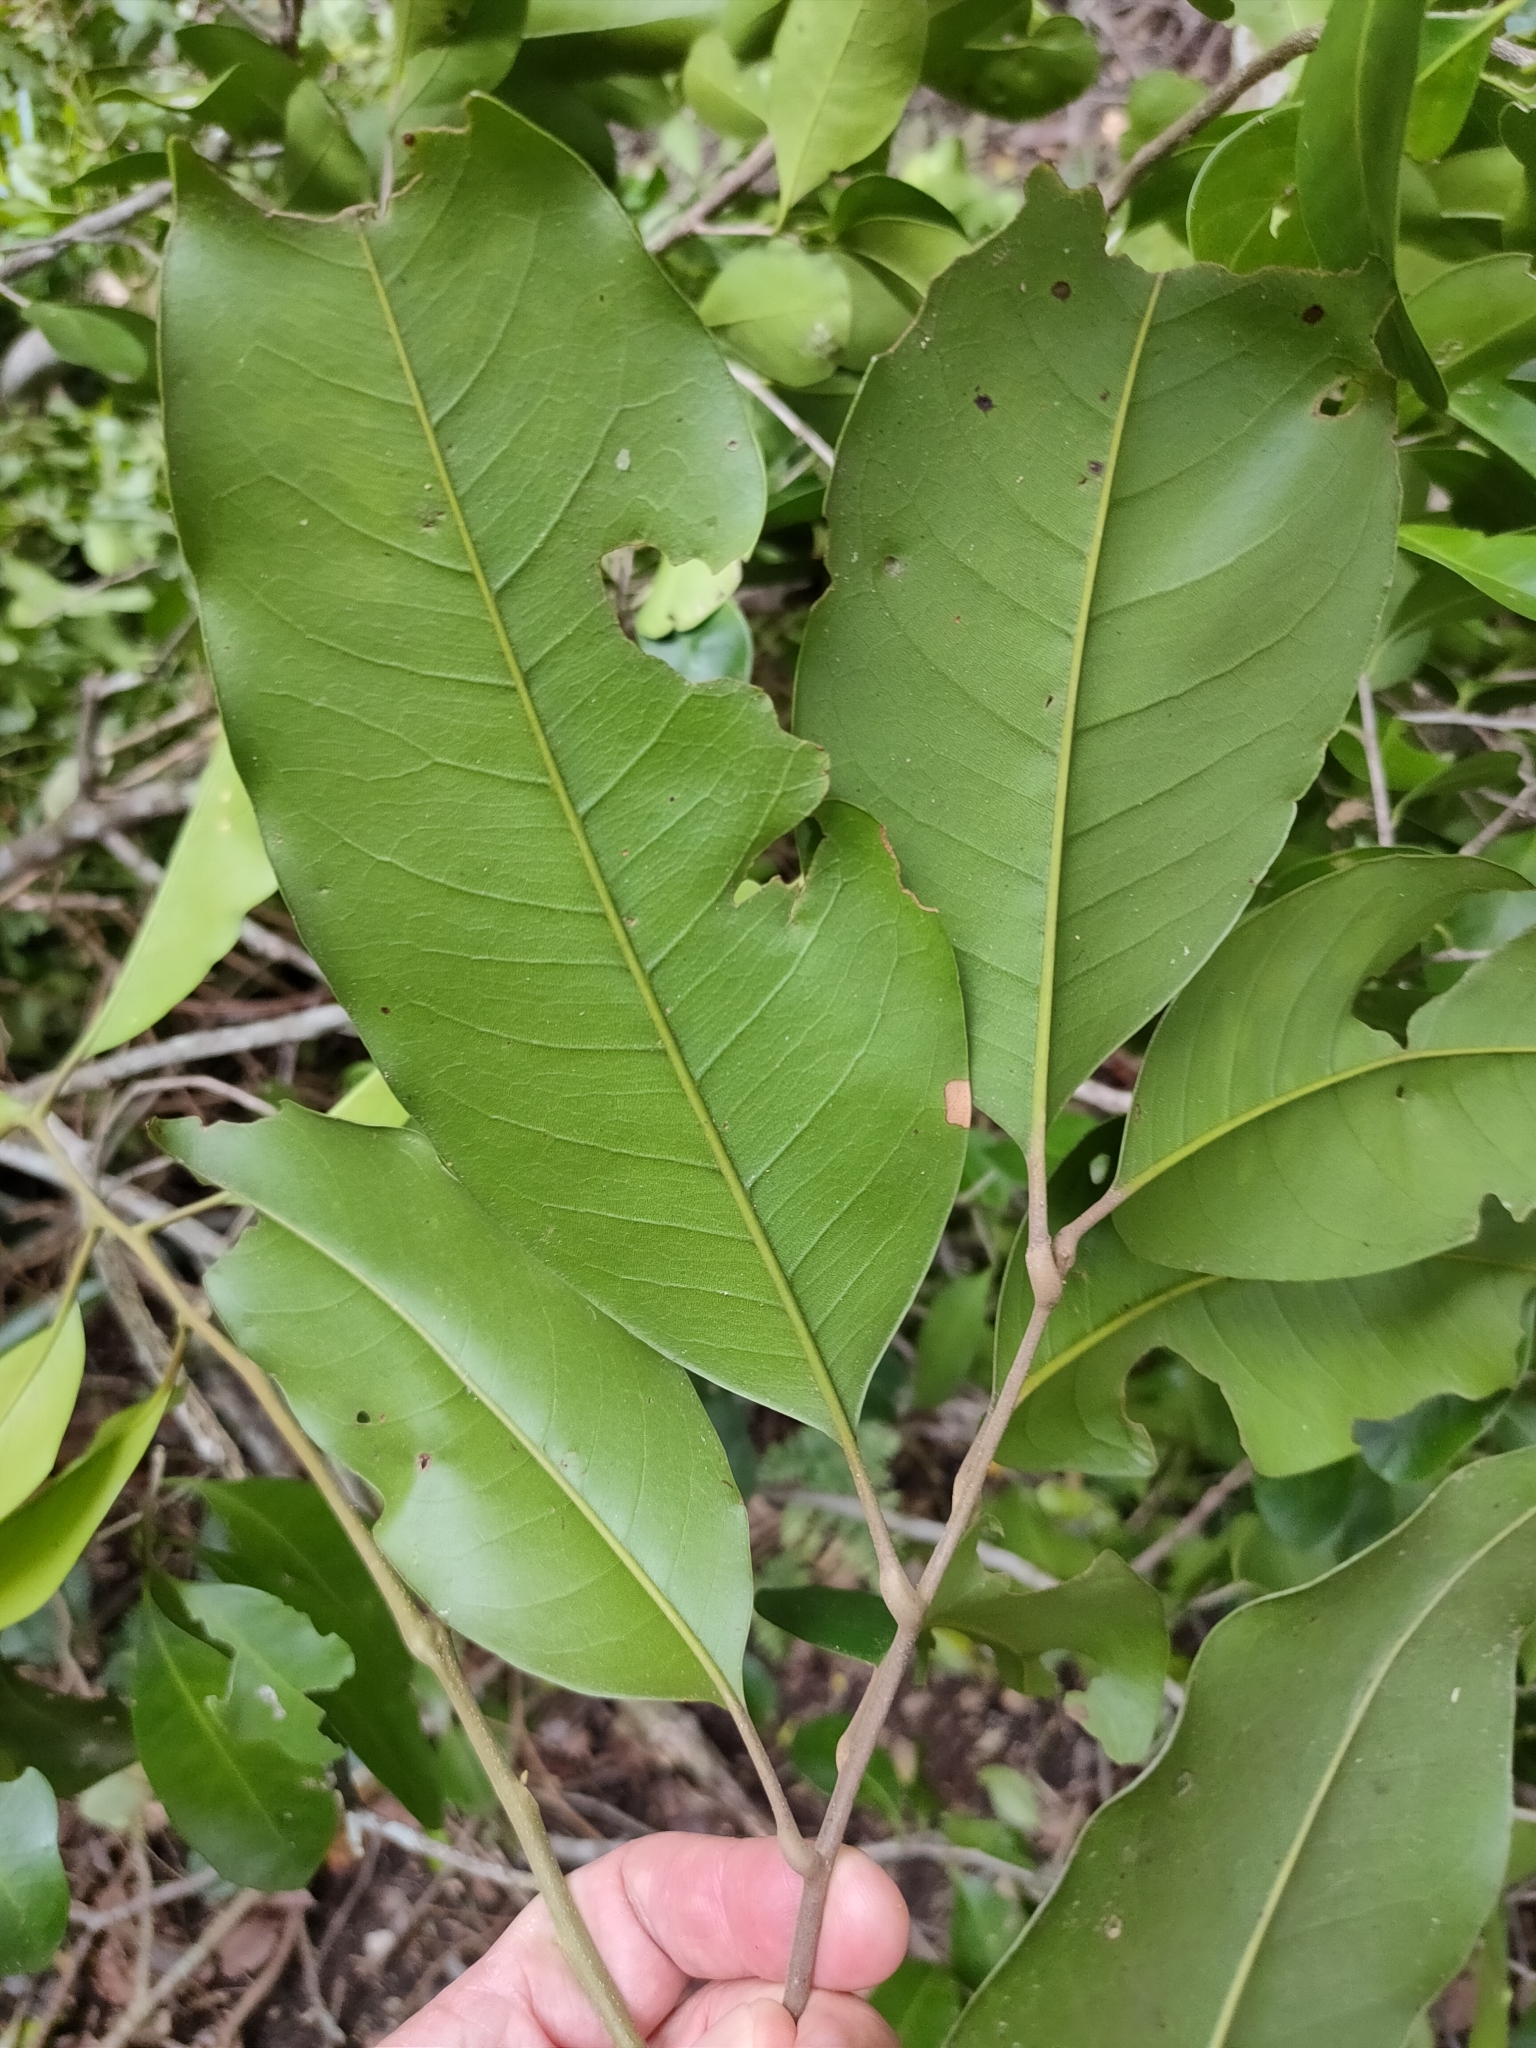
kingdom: Plantae
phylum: Tracheophyta
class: Magnoliopsida
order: Sapindales
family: Sapindaceae
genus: Mischocarpus
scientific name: Mischocarpus pyriformis
